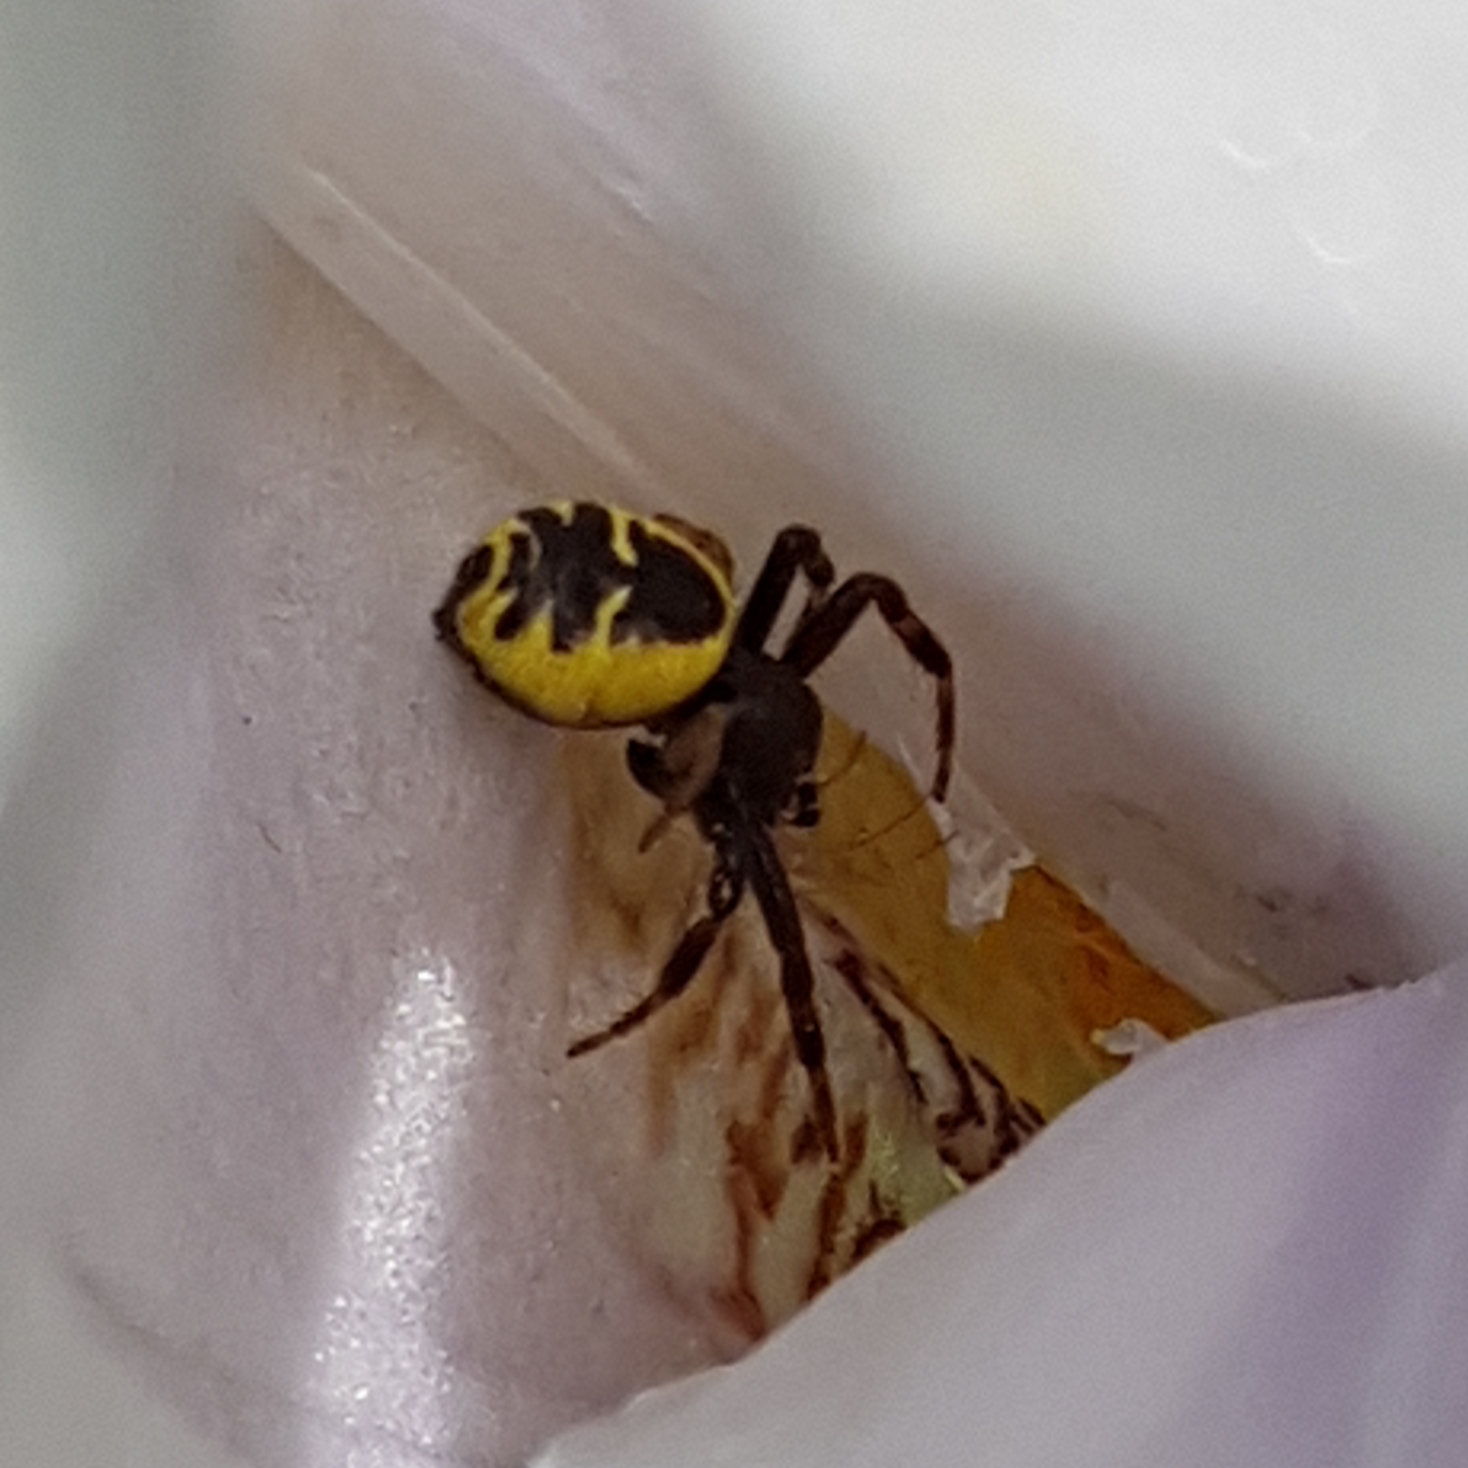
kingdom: Animalia
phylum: Arthropoda
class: Arachnida
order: Araneae
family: Thomisidae
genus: Synema
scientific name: Synema globosum
